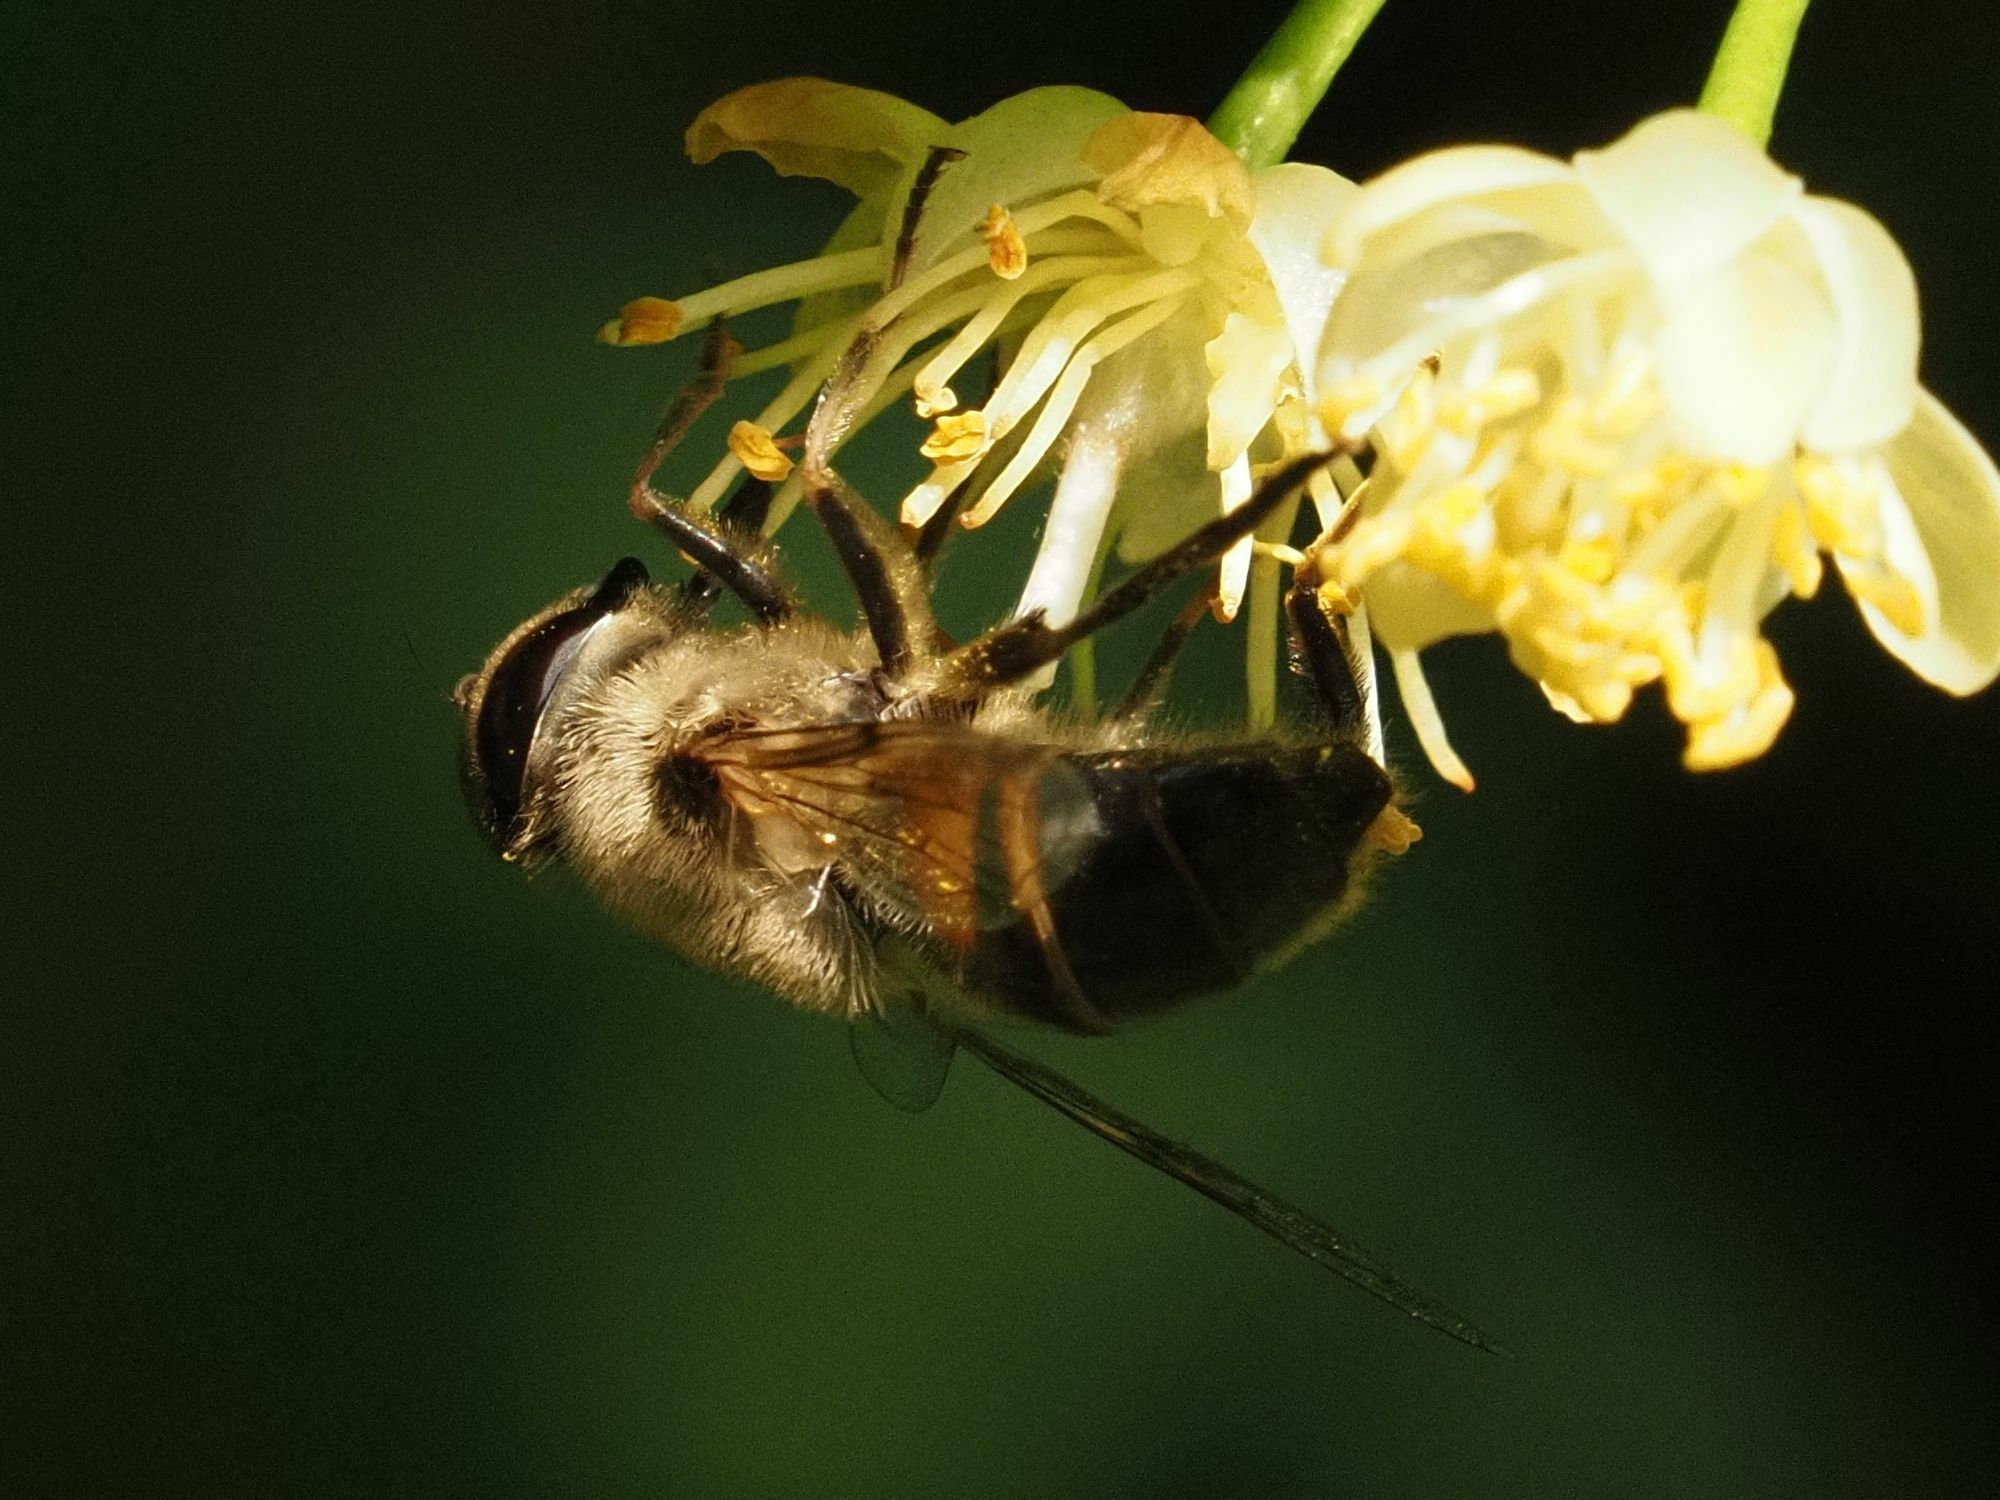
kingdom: Animalia
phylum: Arthropoda
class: Insecta
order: Diptera
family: Syrphidae
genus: Eristalis
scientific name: Eristalis tenax
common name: Drone fly
